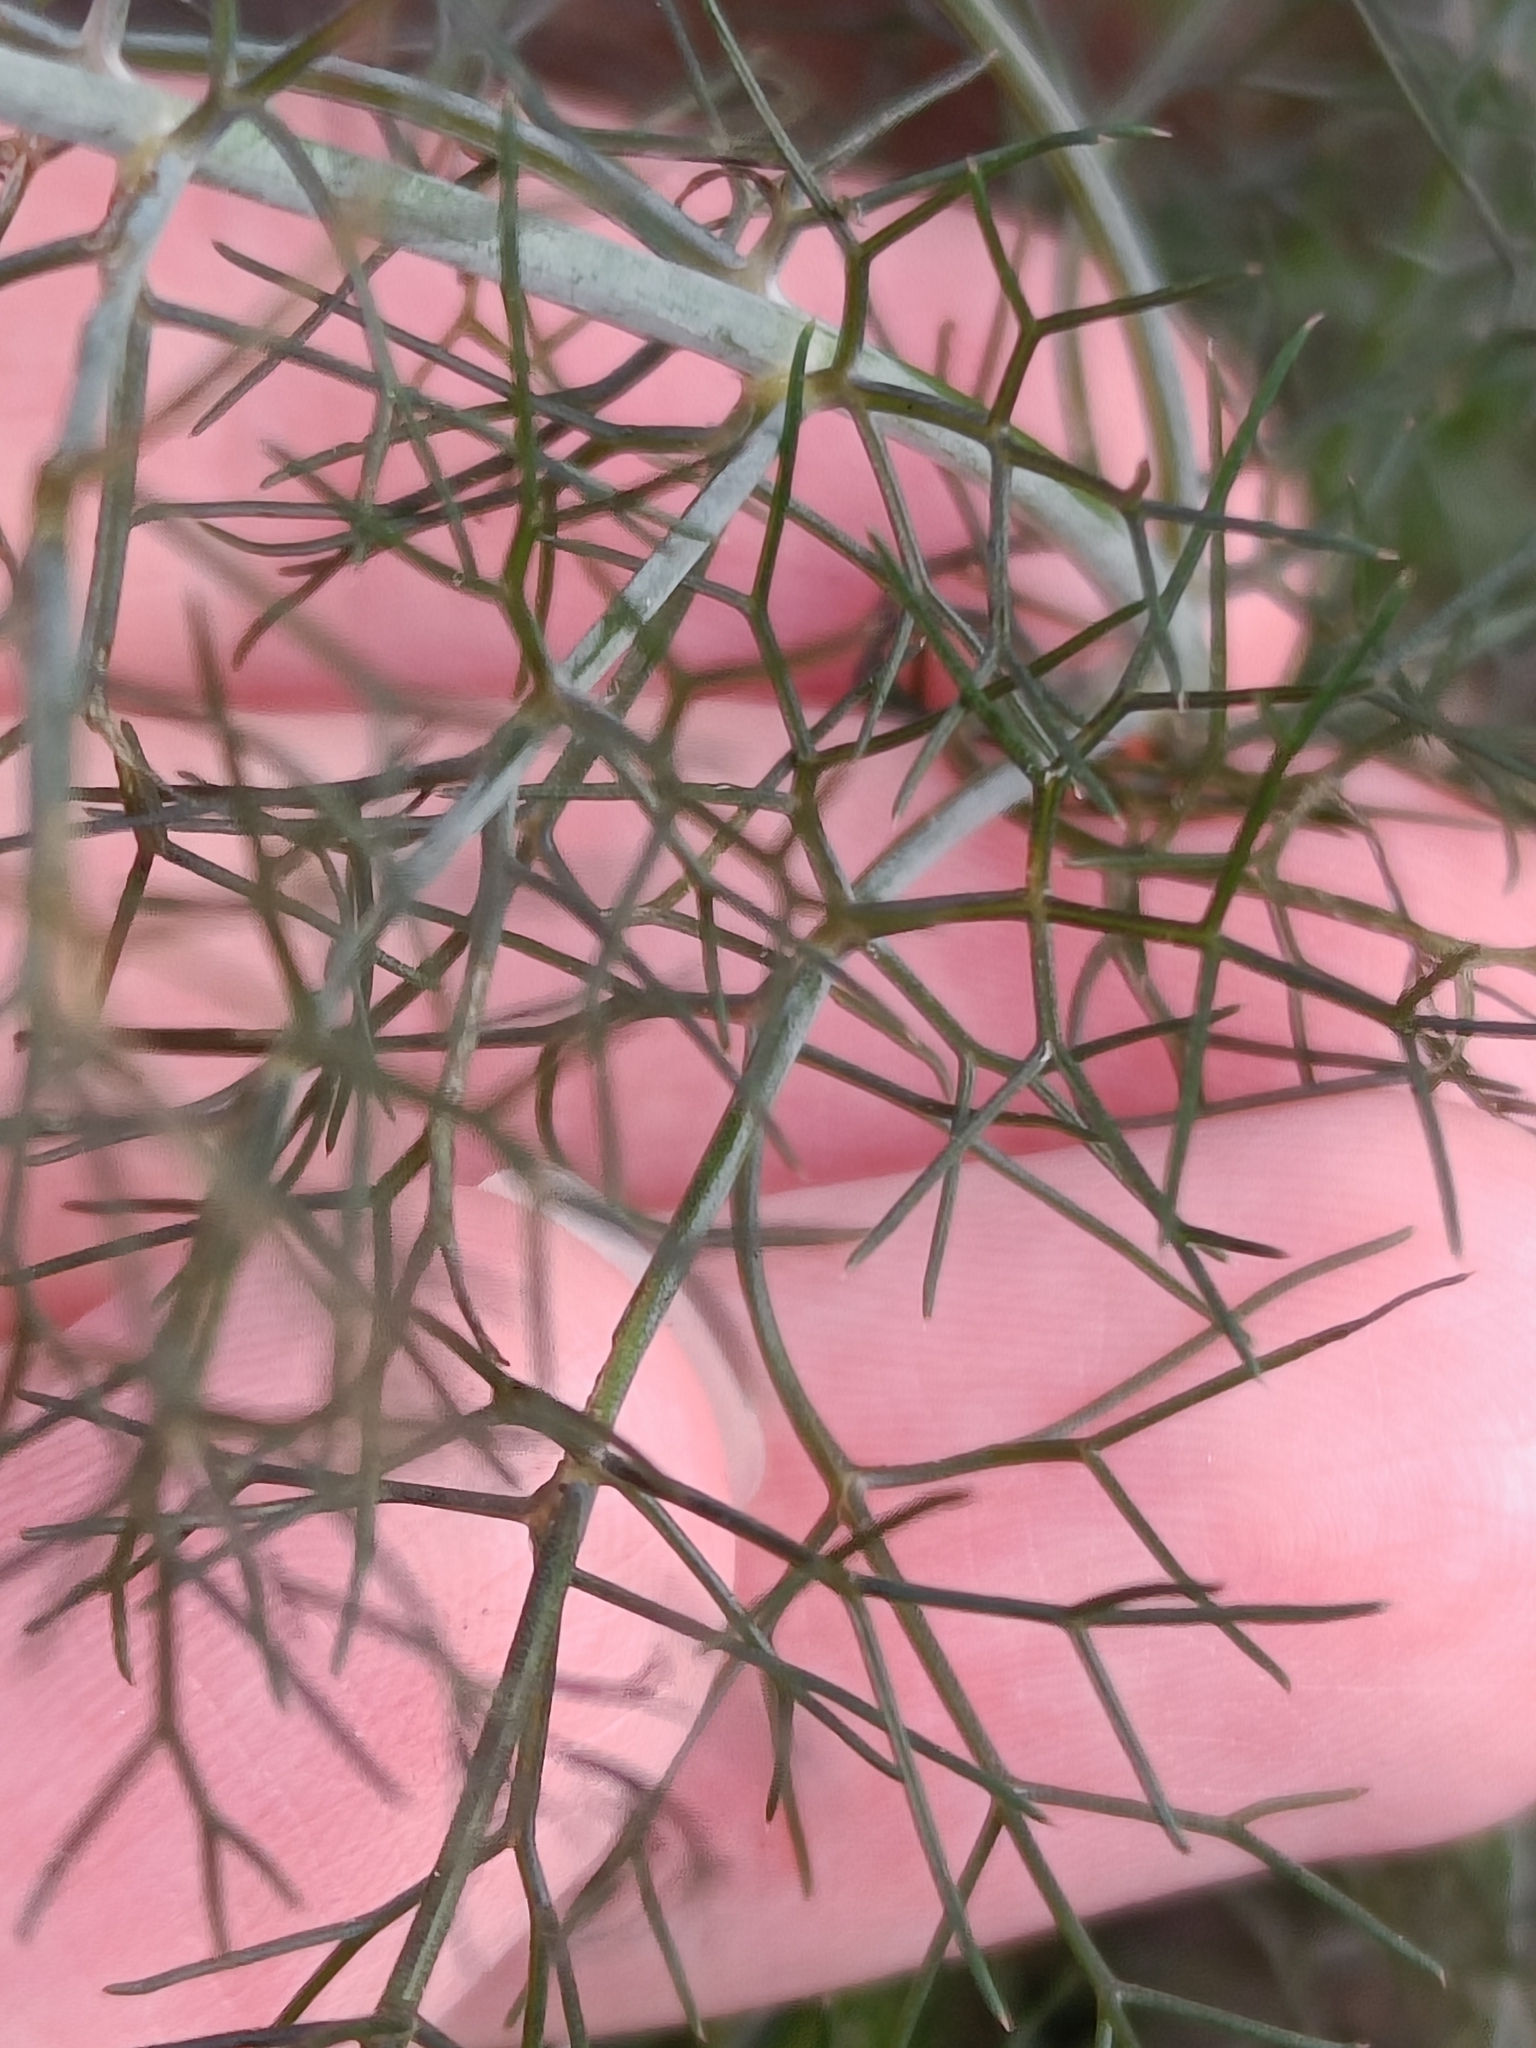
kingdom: Plantae
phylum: Tracheophyta
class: Magnoliopsida
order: Apiales
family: Apiaceae
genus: Foeniculum
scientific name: Foeniculum vulgare
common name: Fennel
